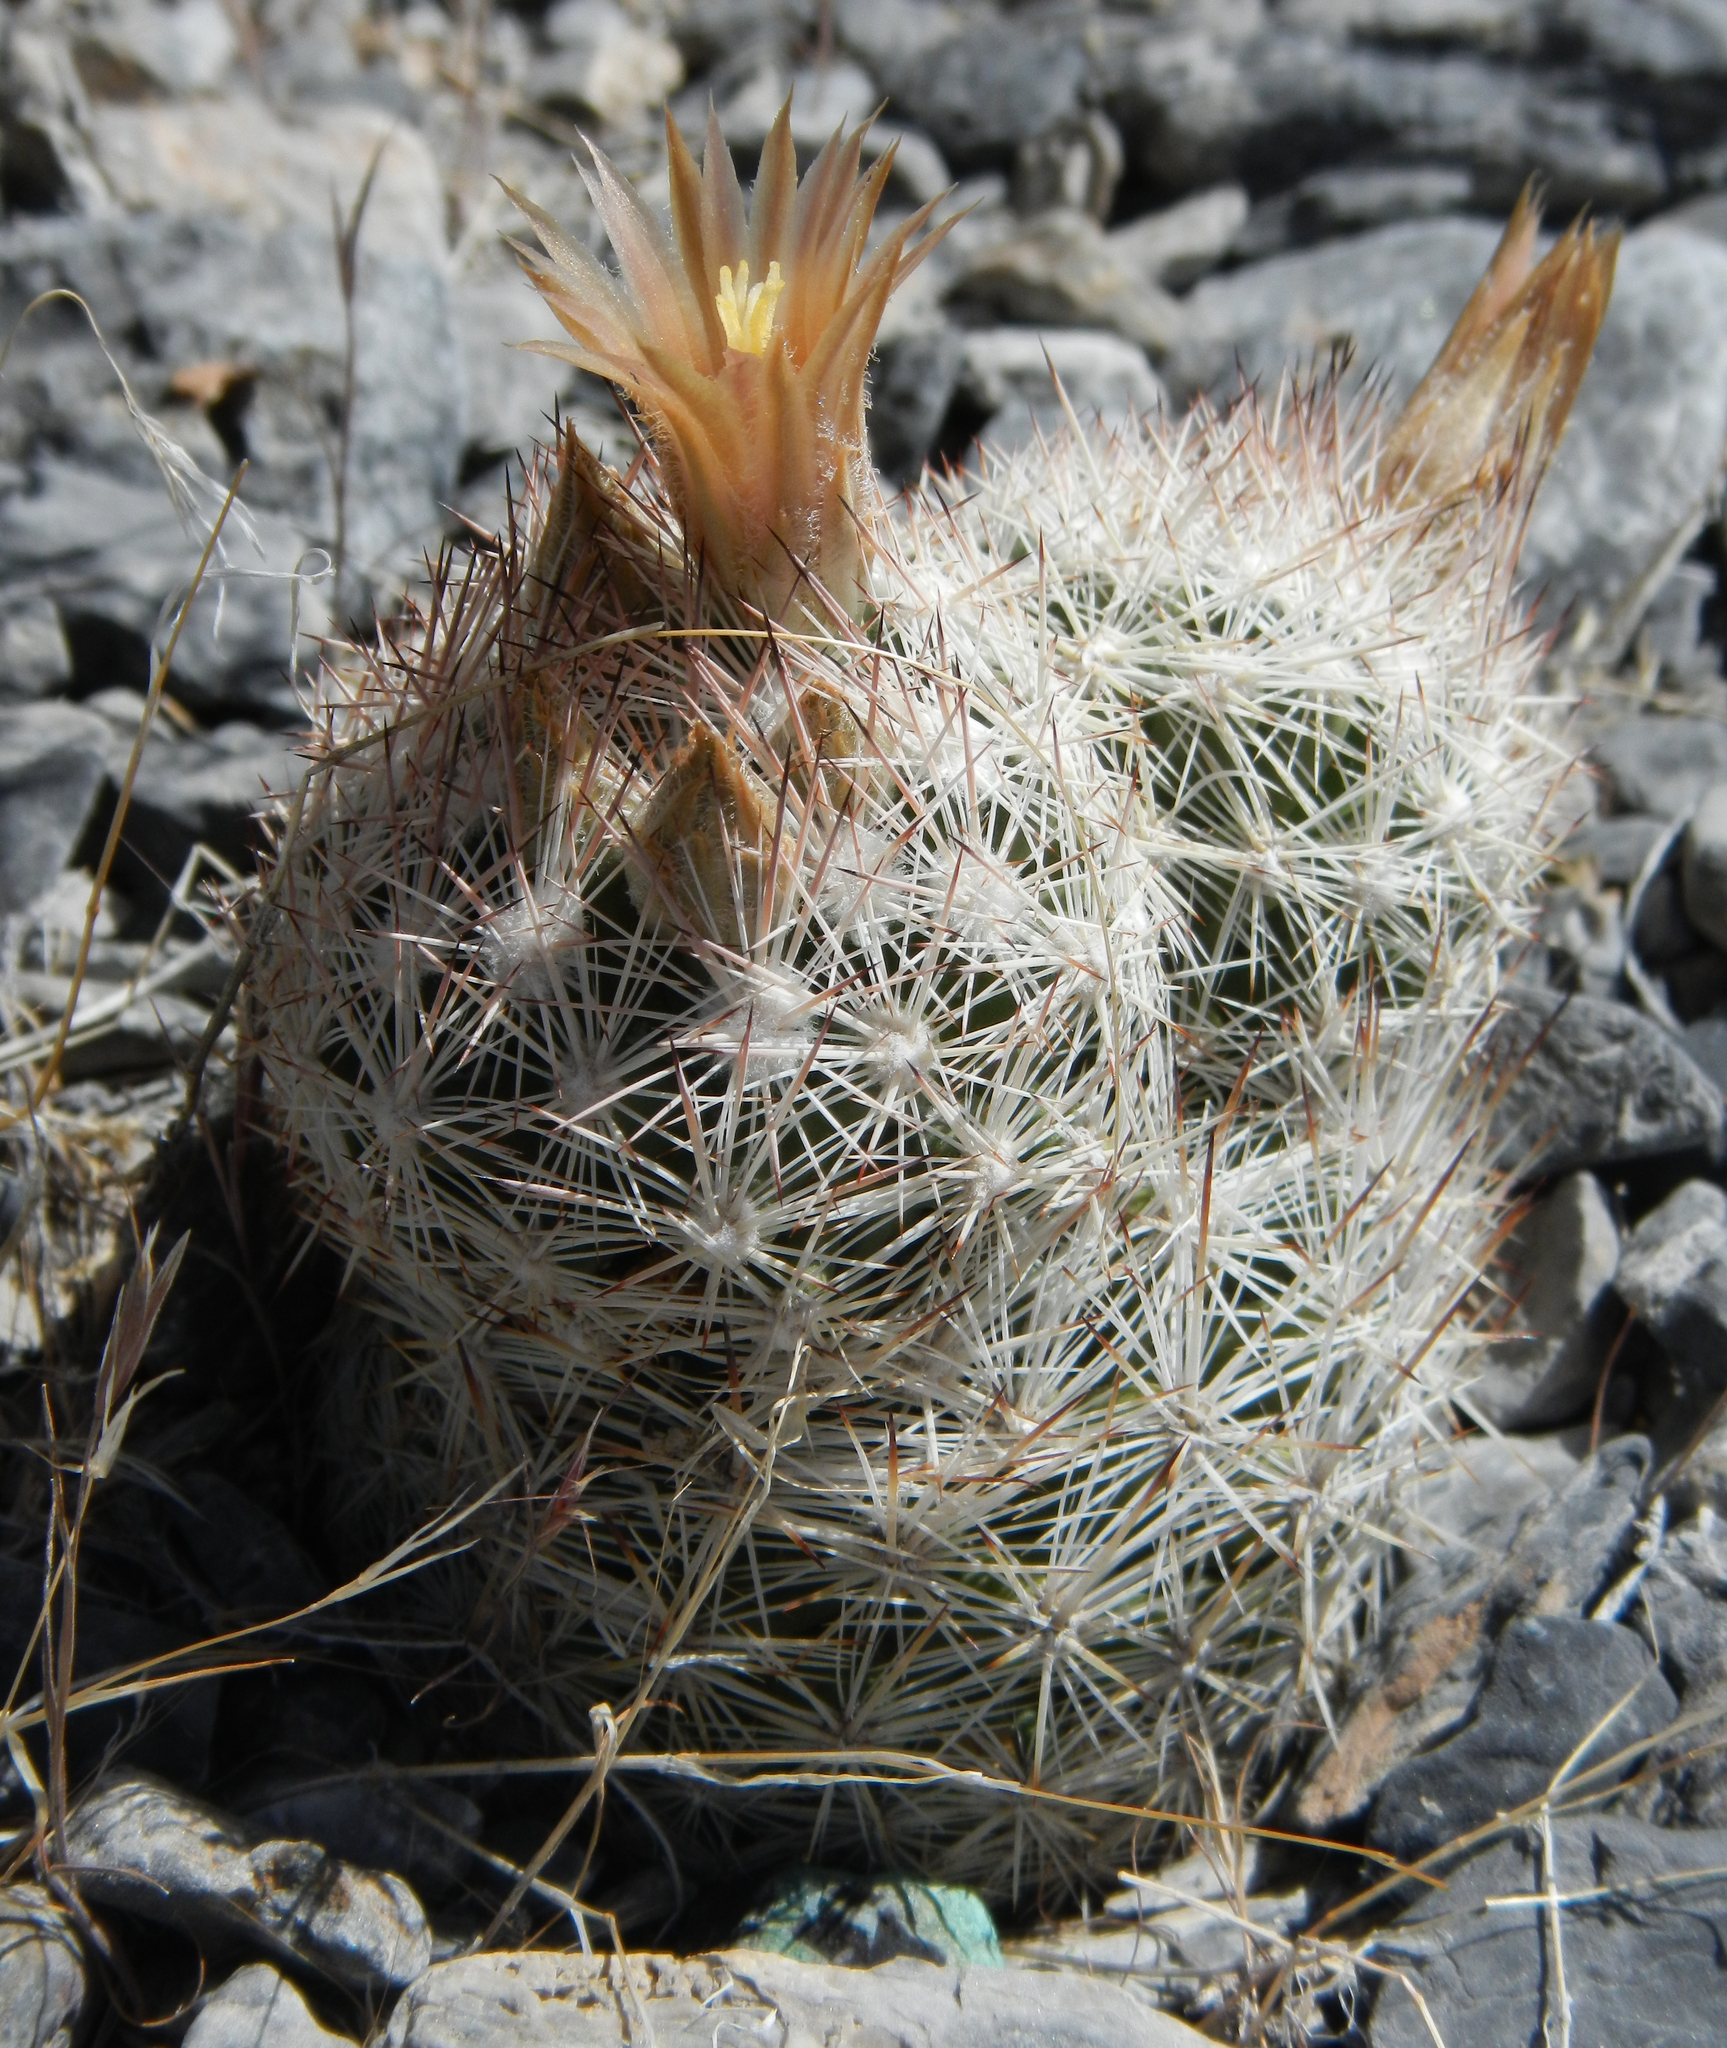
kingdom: Plantae
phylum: Tracheophyta
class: Magnoliopsida
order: Caryophyllales
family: Cactaceae
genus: Pelecyphora
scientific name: Pelecyphora dasyacantha
